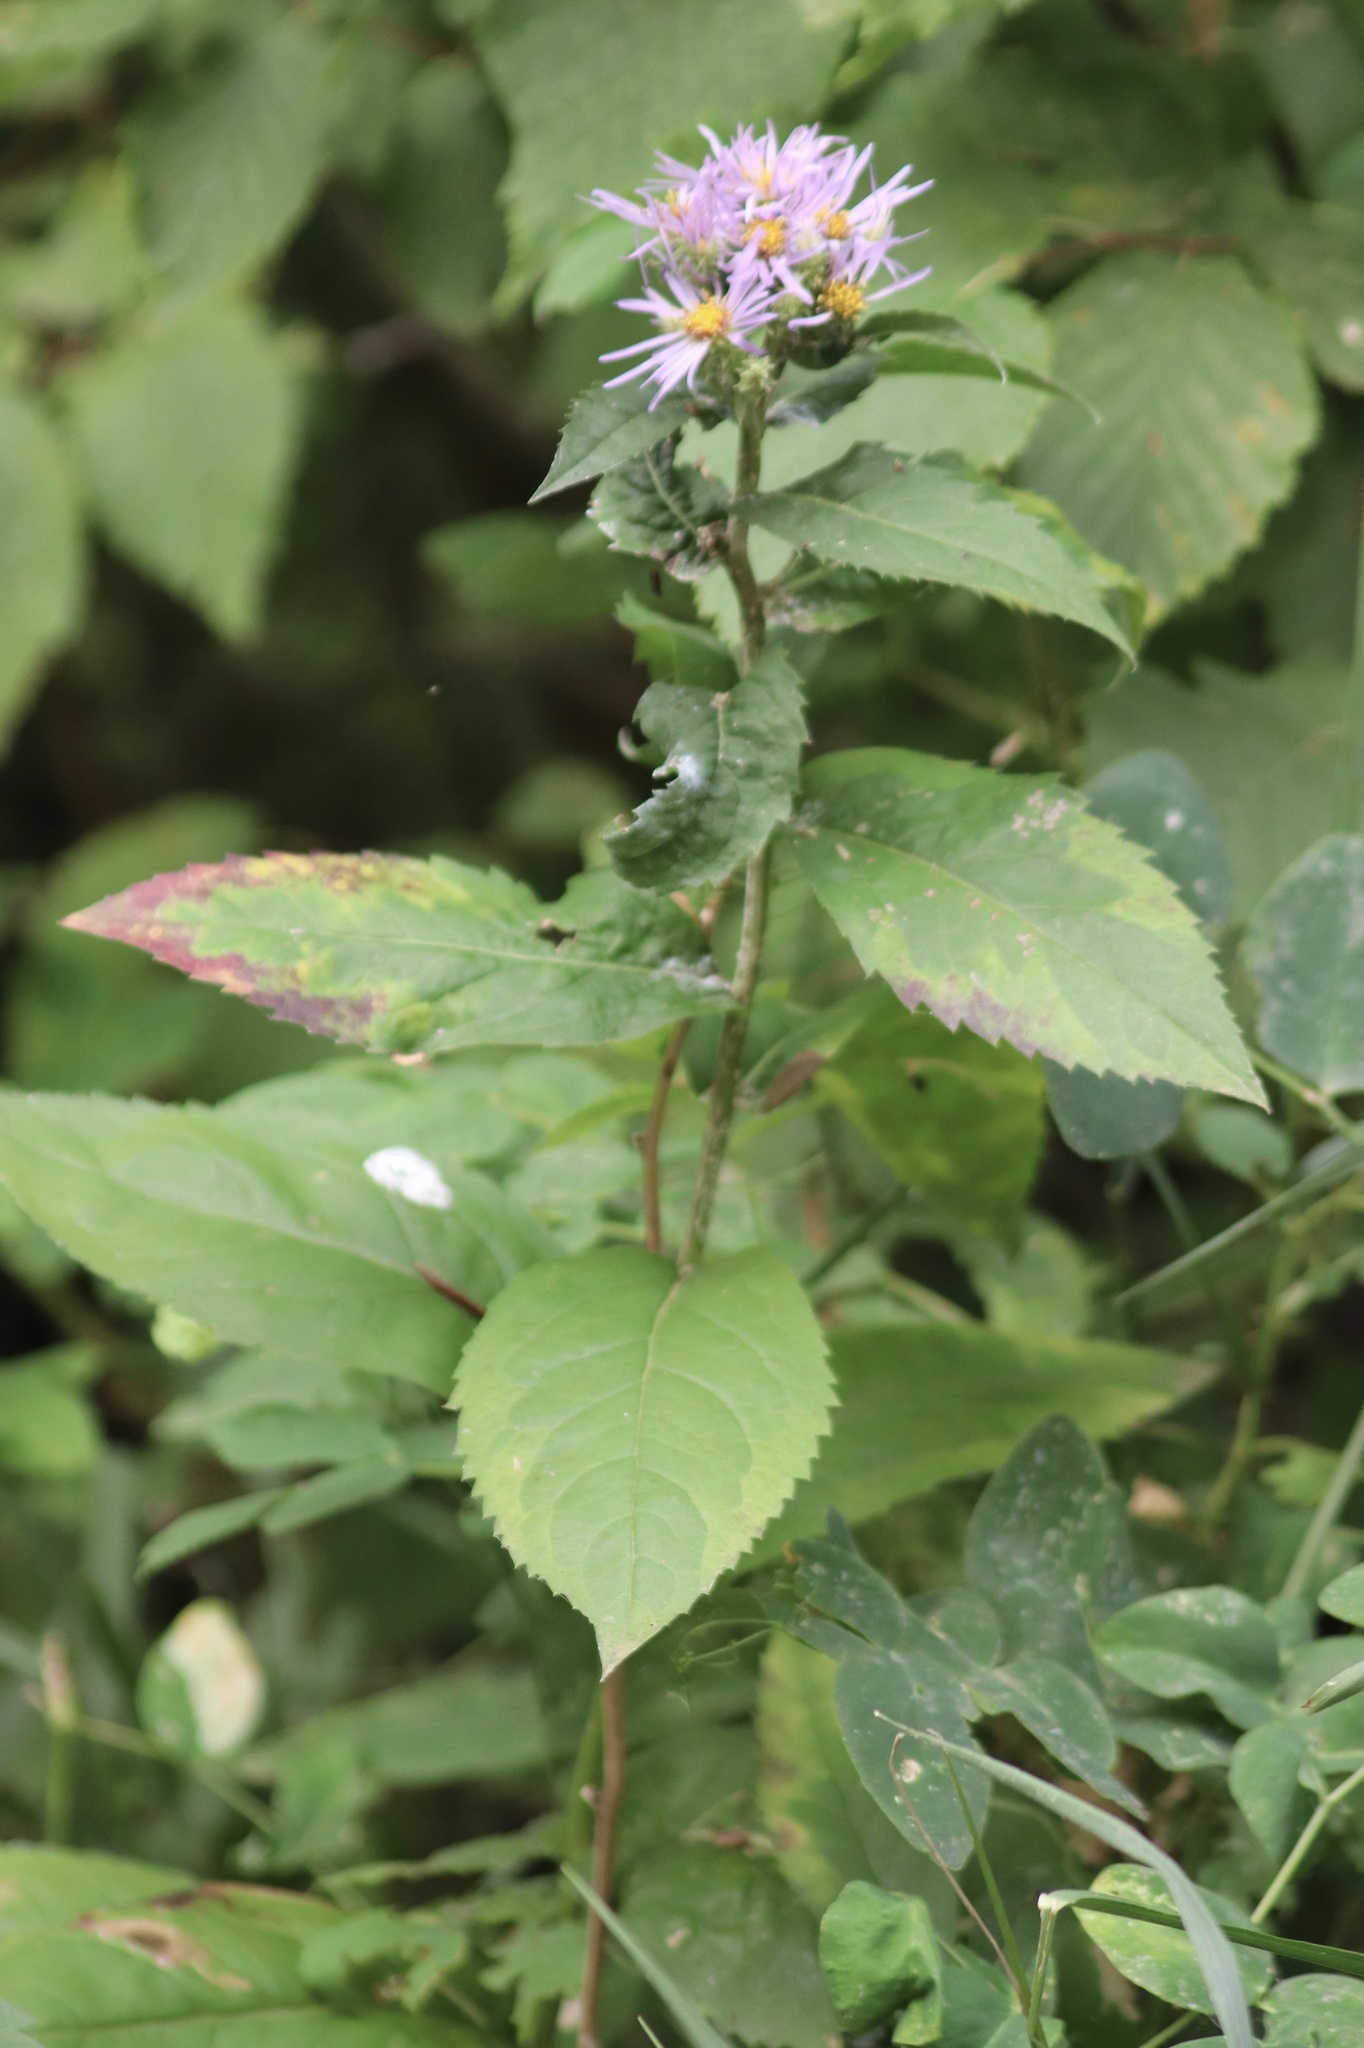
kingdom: Plantae
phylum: Tracheophyta
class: Magnoliopsida
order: Asterales
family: Asteraceae
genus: Eurybia
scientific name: Eurybia conspicua
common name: Showy aster
